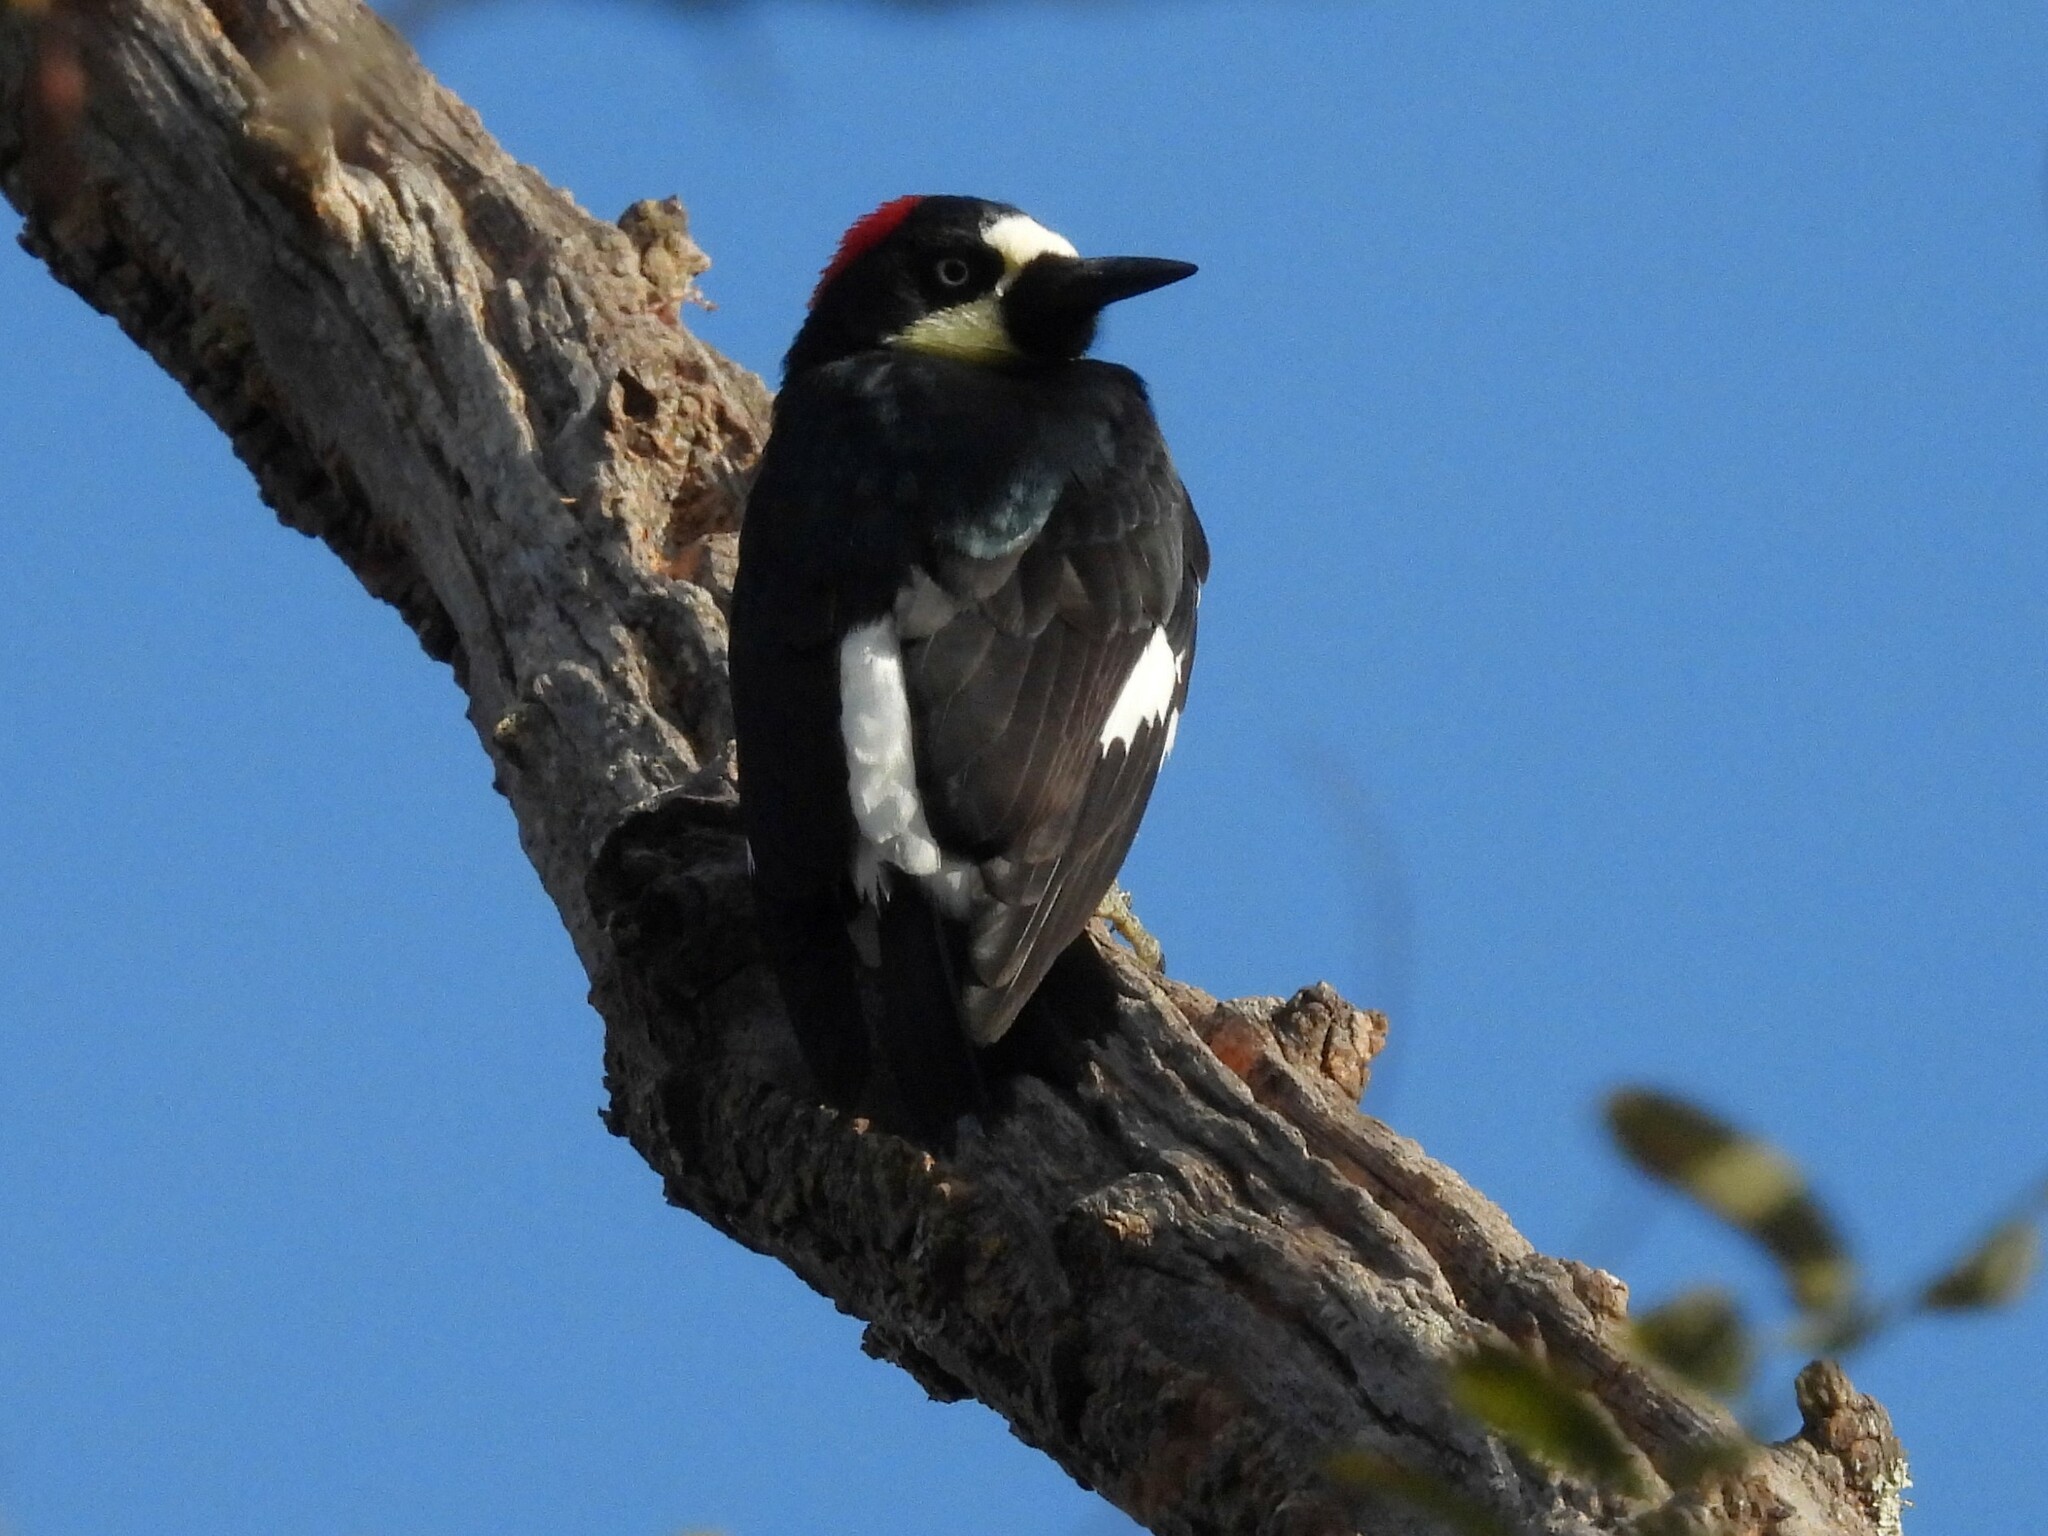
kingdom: Animalia
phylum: Chordata
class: Aves
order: Piciformes
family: Picidae
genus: Melanerpes
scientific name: Melanerpes formicivorus
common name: Acorn woodpecker
